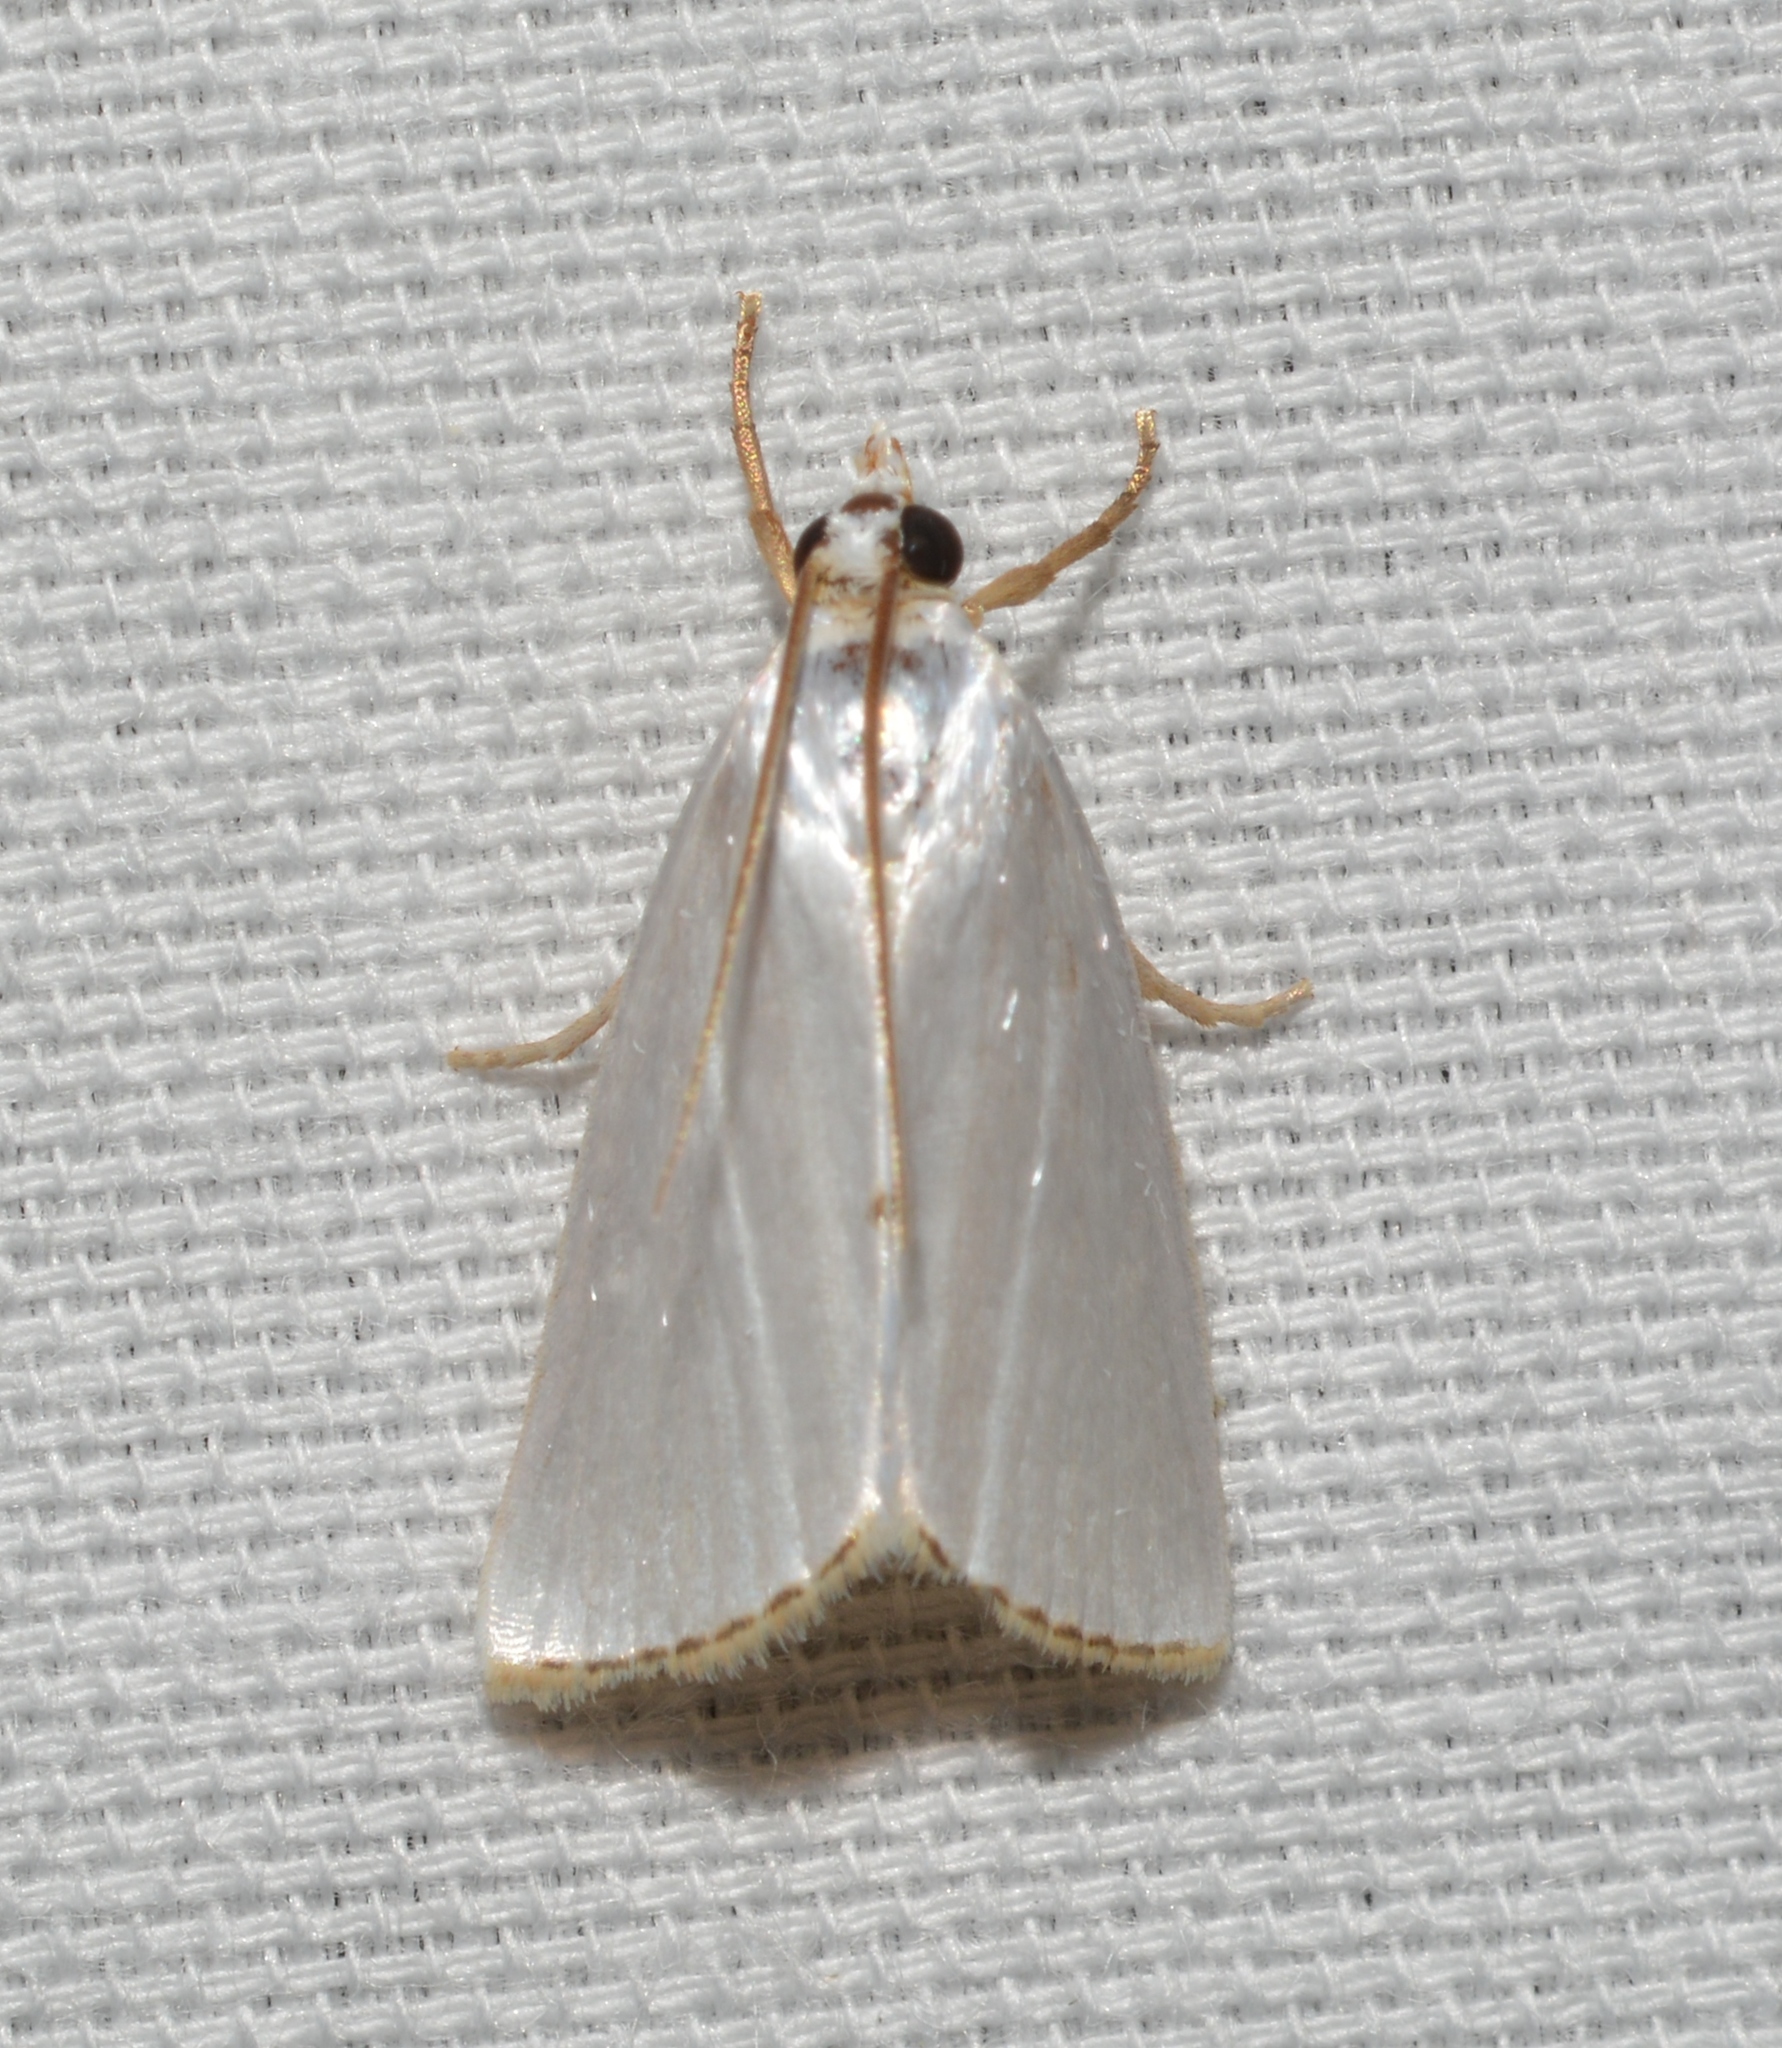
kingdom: Animalia
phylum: Arthropoda
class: Insecta
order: Lepidoptera
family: Crambidae
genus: Argyria
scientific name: Argyria nivalis
